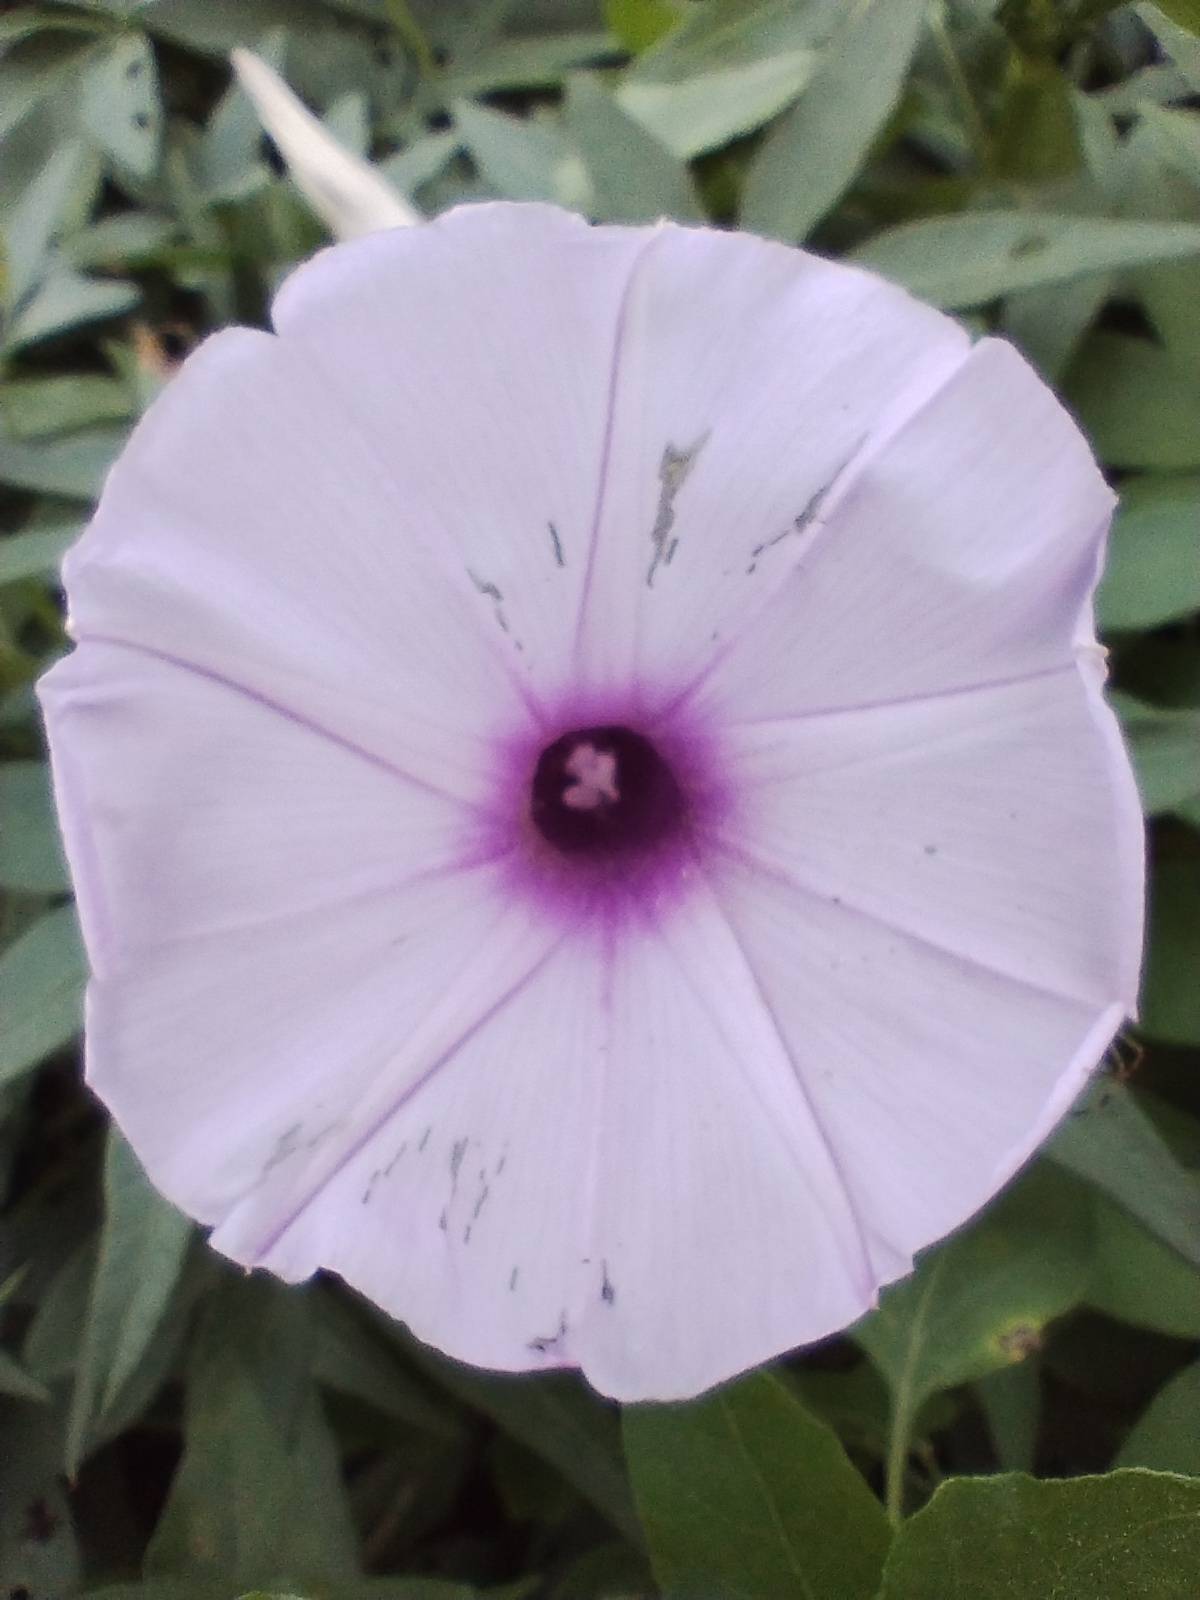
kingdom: Plantae
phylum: Tracheophyta
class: Magnoliopsida
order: Solanales
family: Convolvulaceae
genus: Ipomoea
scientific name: Ipomoea cairica
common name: Mile a minute vine
